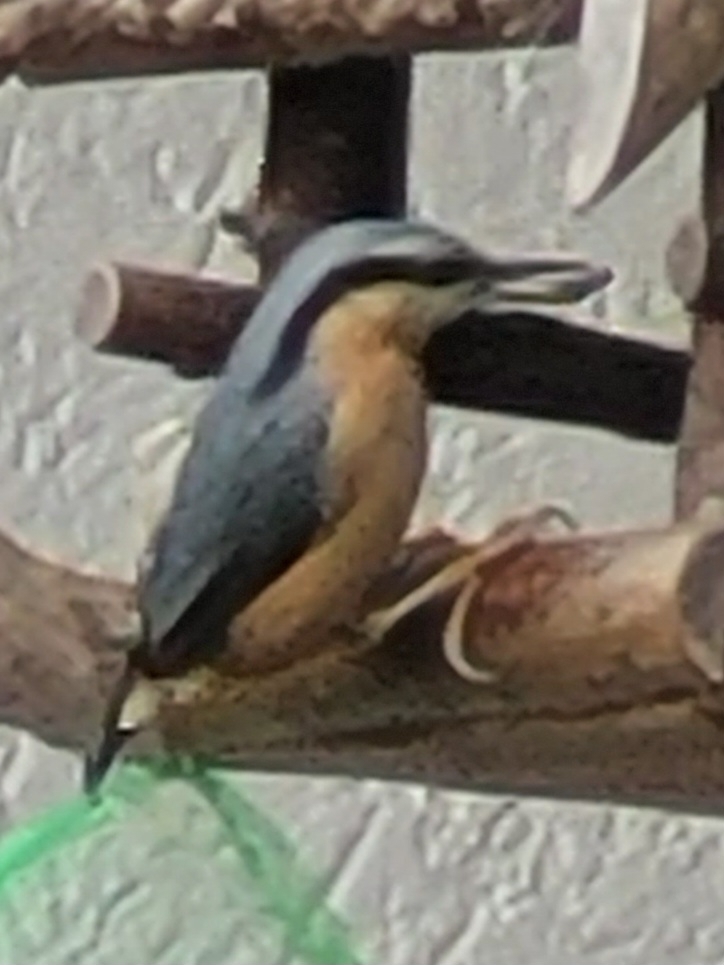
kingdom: Animalia
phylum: Chordata
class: Aves
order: Passeriformes
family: Sittidae
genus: Sitta
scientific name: Sitta europaea
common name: Eurasian nuthatch
